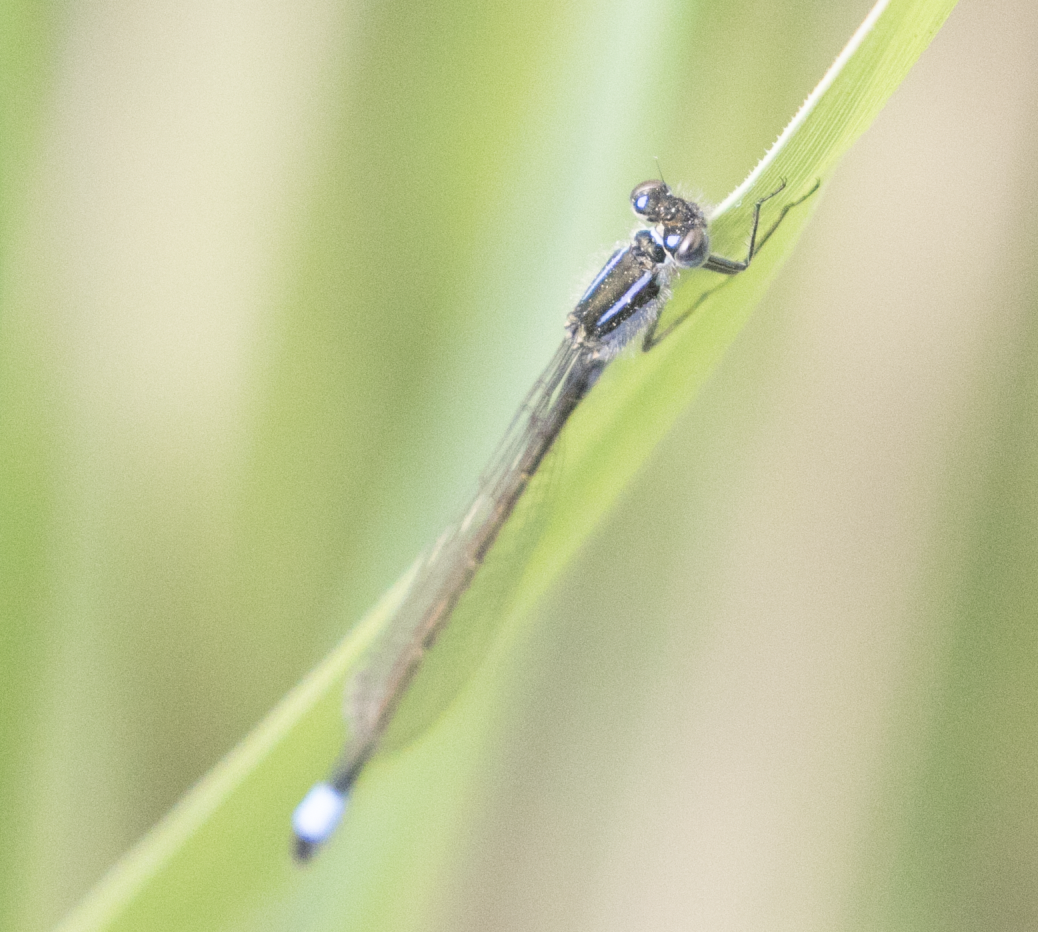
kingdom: Animalia
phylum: Arthropoda
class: Insecta
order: Odonata
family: Coenagrionidae
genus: Ischnura
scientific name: Ischnura elegans
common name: Blue-tailed damselfly
